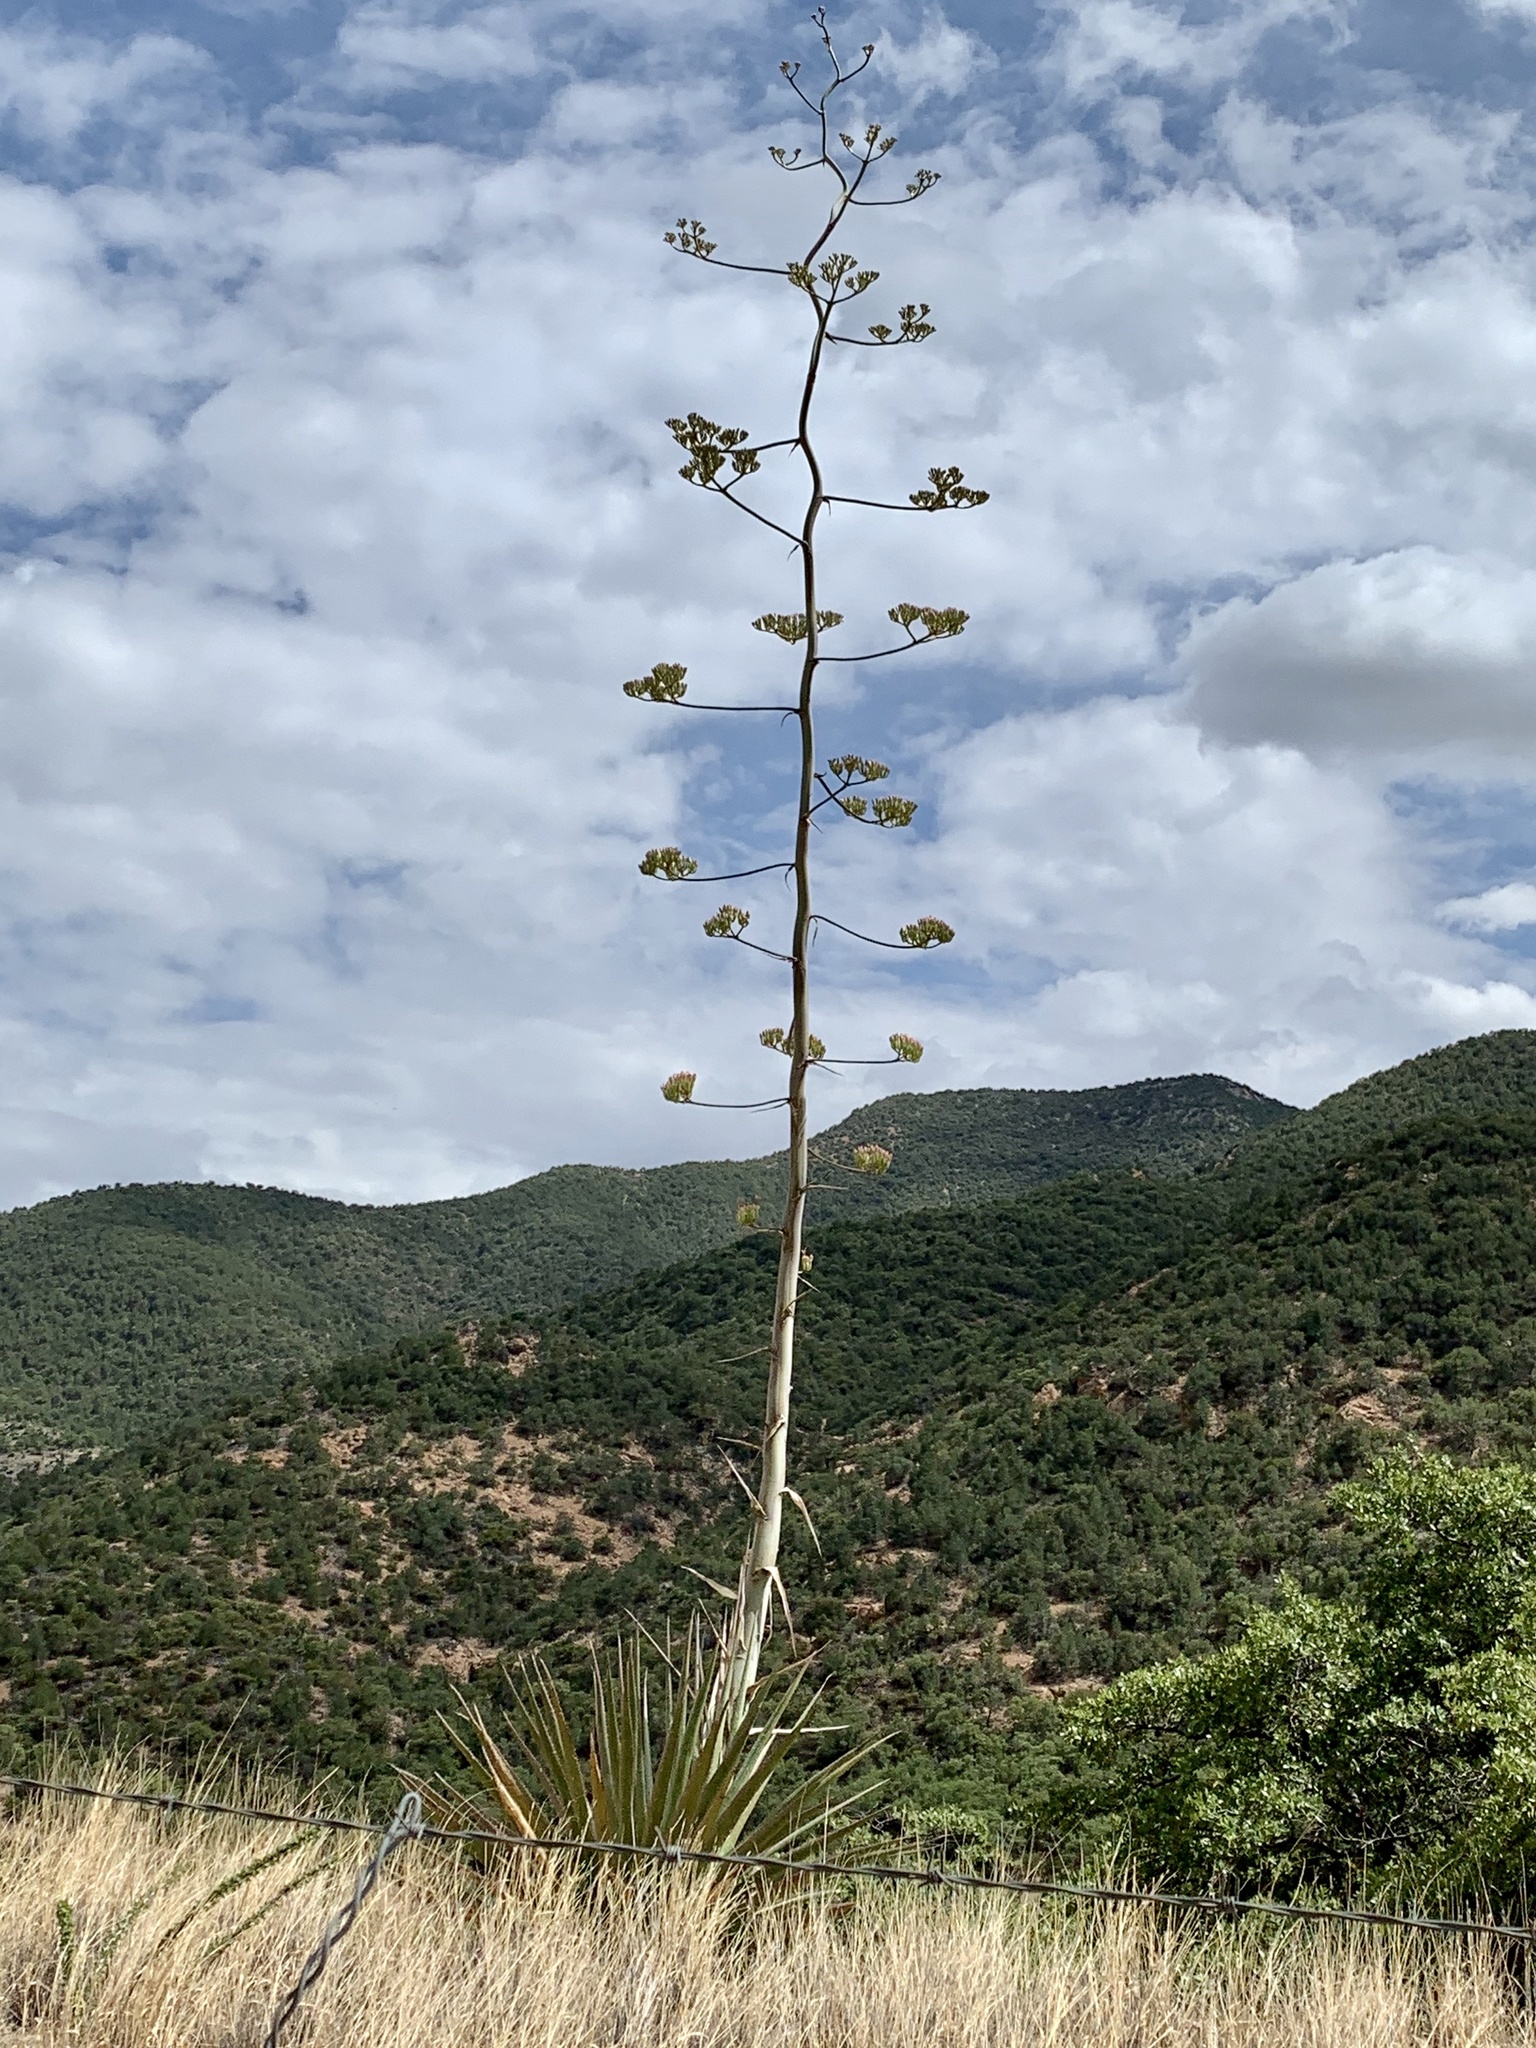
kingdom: Plantae
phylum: Tracheophyta
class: Liliopsida
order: Asparagales
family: Asparagaceae
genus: Agave
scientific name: Agave palmeri
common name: Palmer agave
